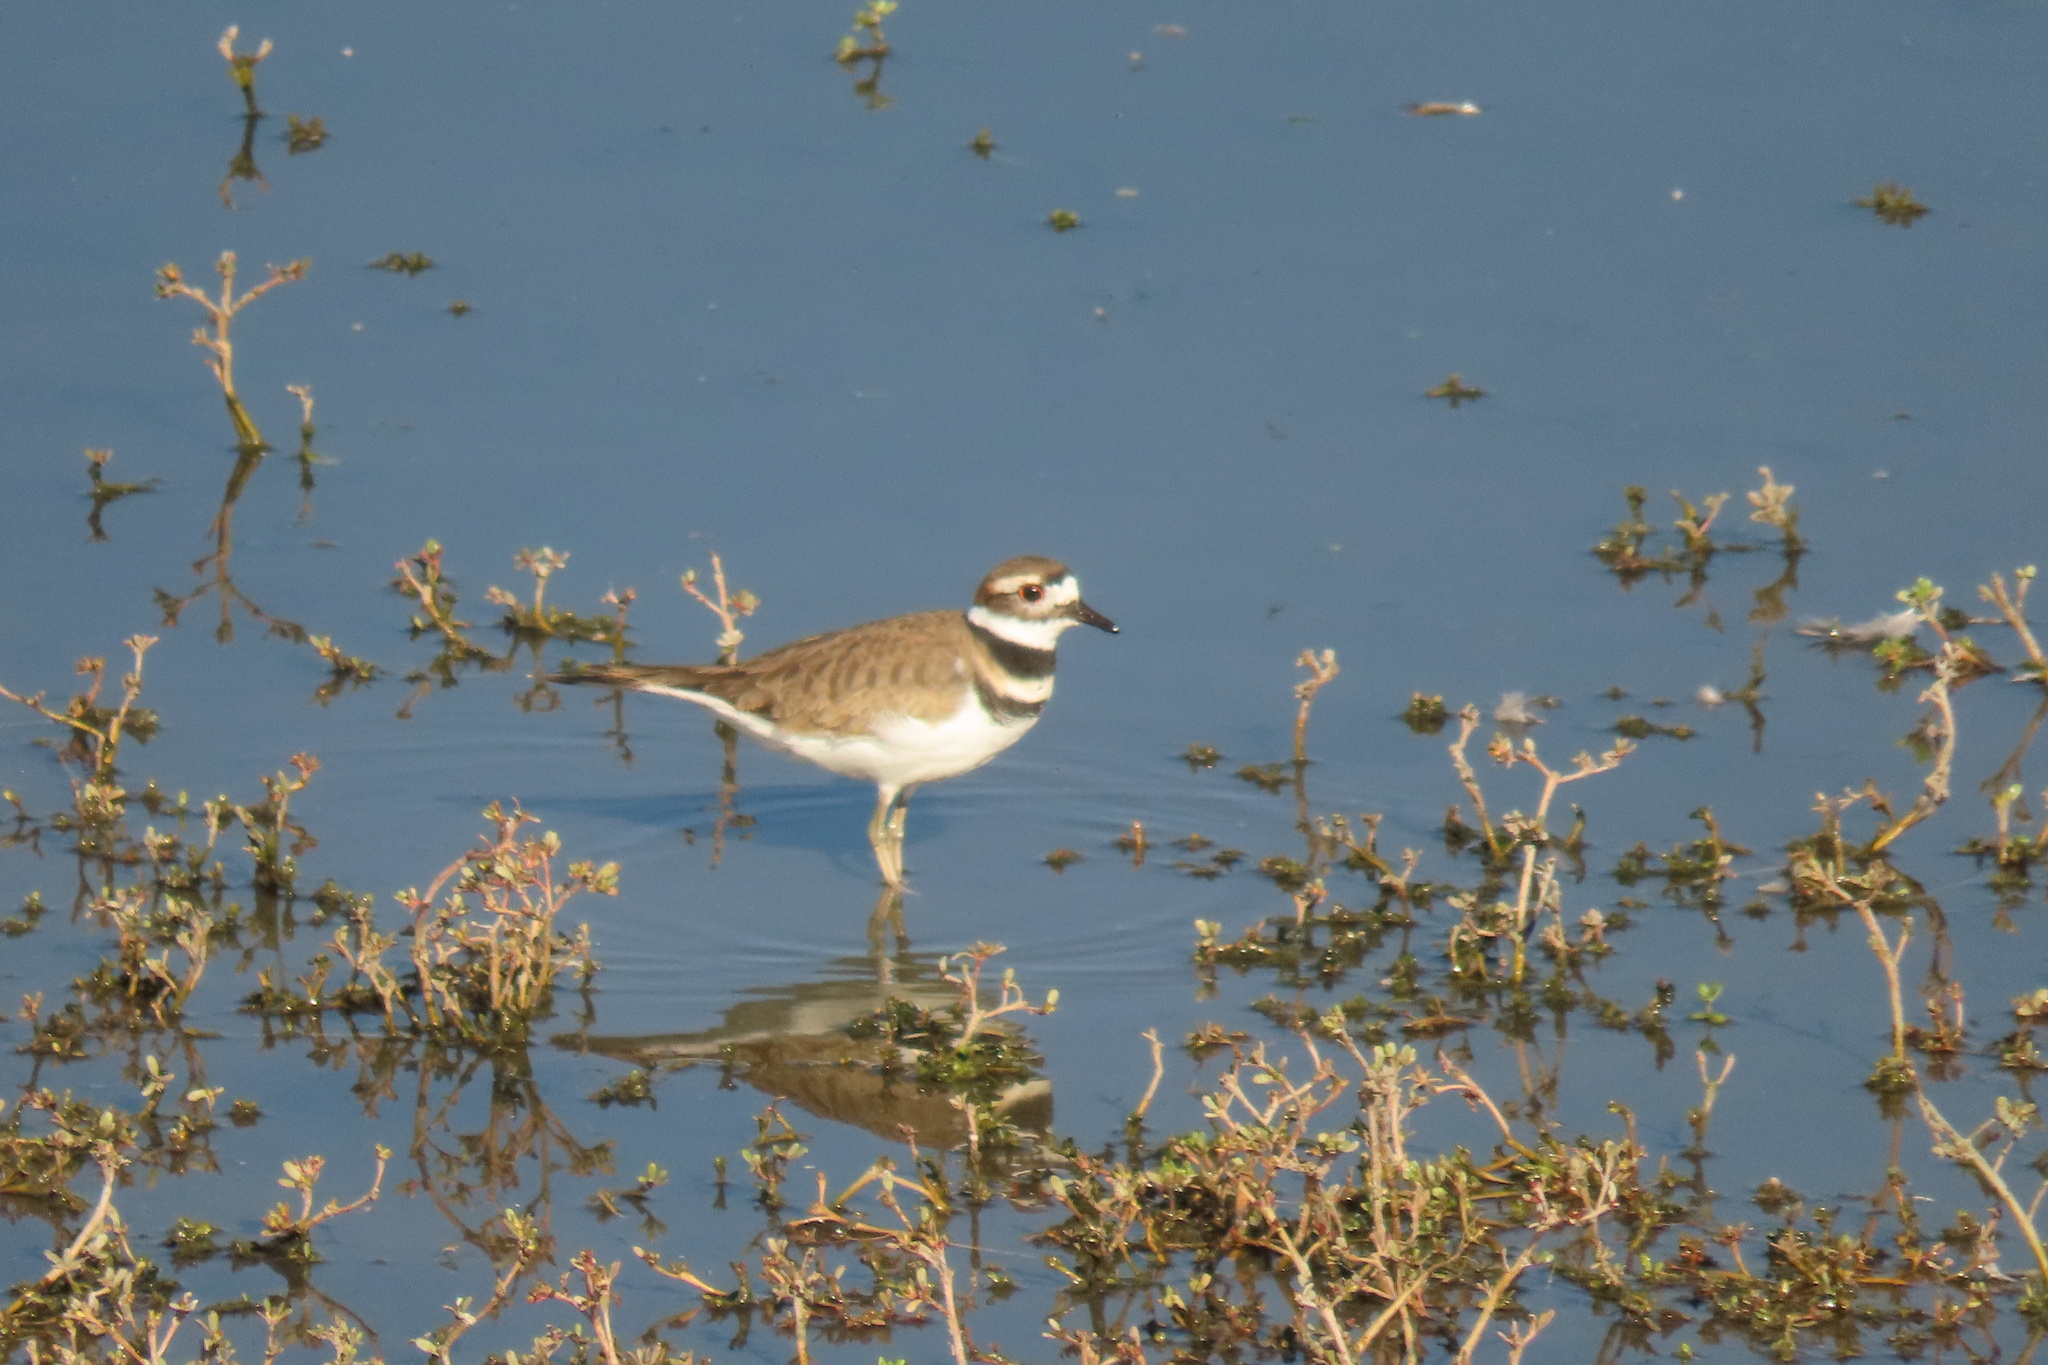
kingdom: Animalia
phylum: Chordata
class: Aves
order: Charadriiformes
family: Charadriidae
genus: Charadrius
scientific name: Charadrius vociferus
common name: Killdeer
